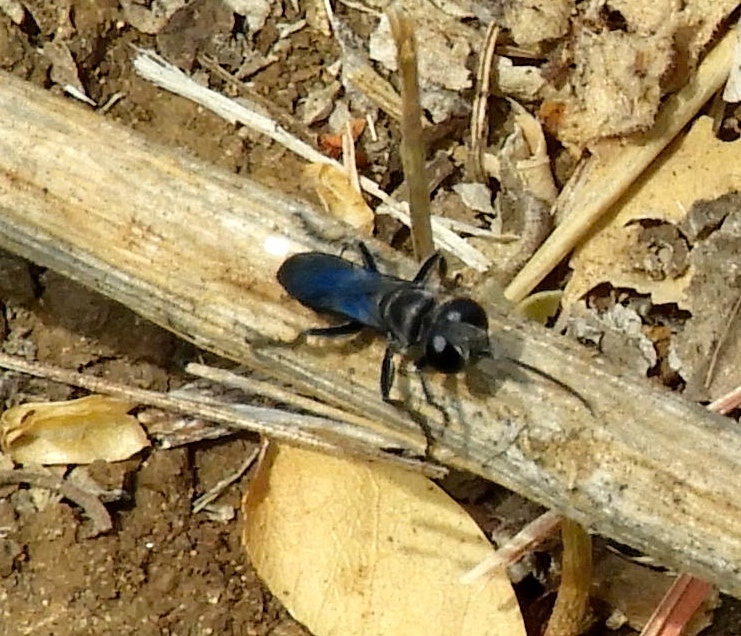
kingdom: Animalia
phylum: Arthropoda
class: Insecta
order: Hymenoptera
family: Crabronidae
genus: Liris
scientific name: Liris
